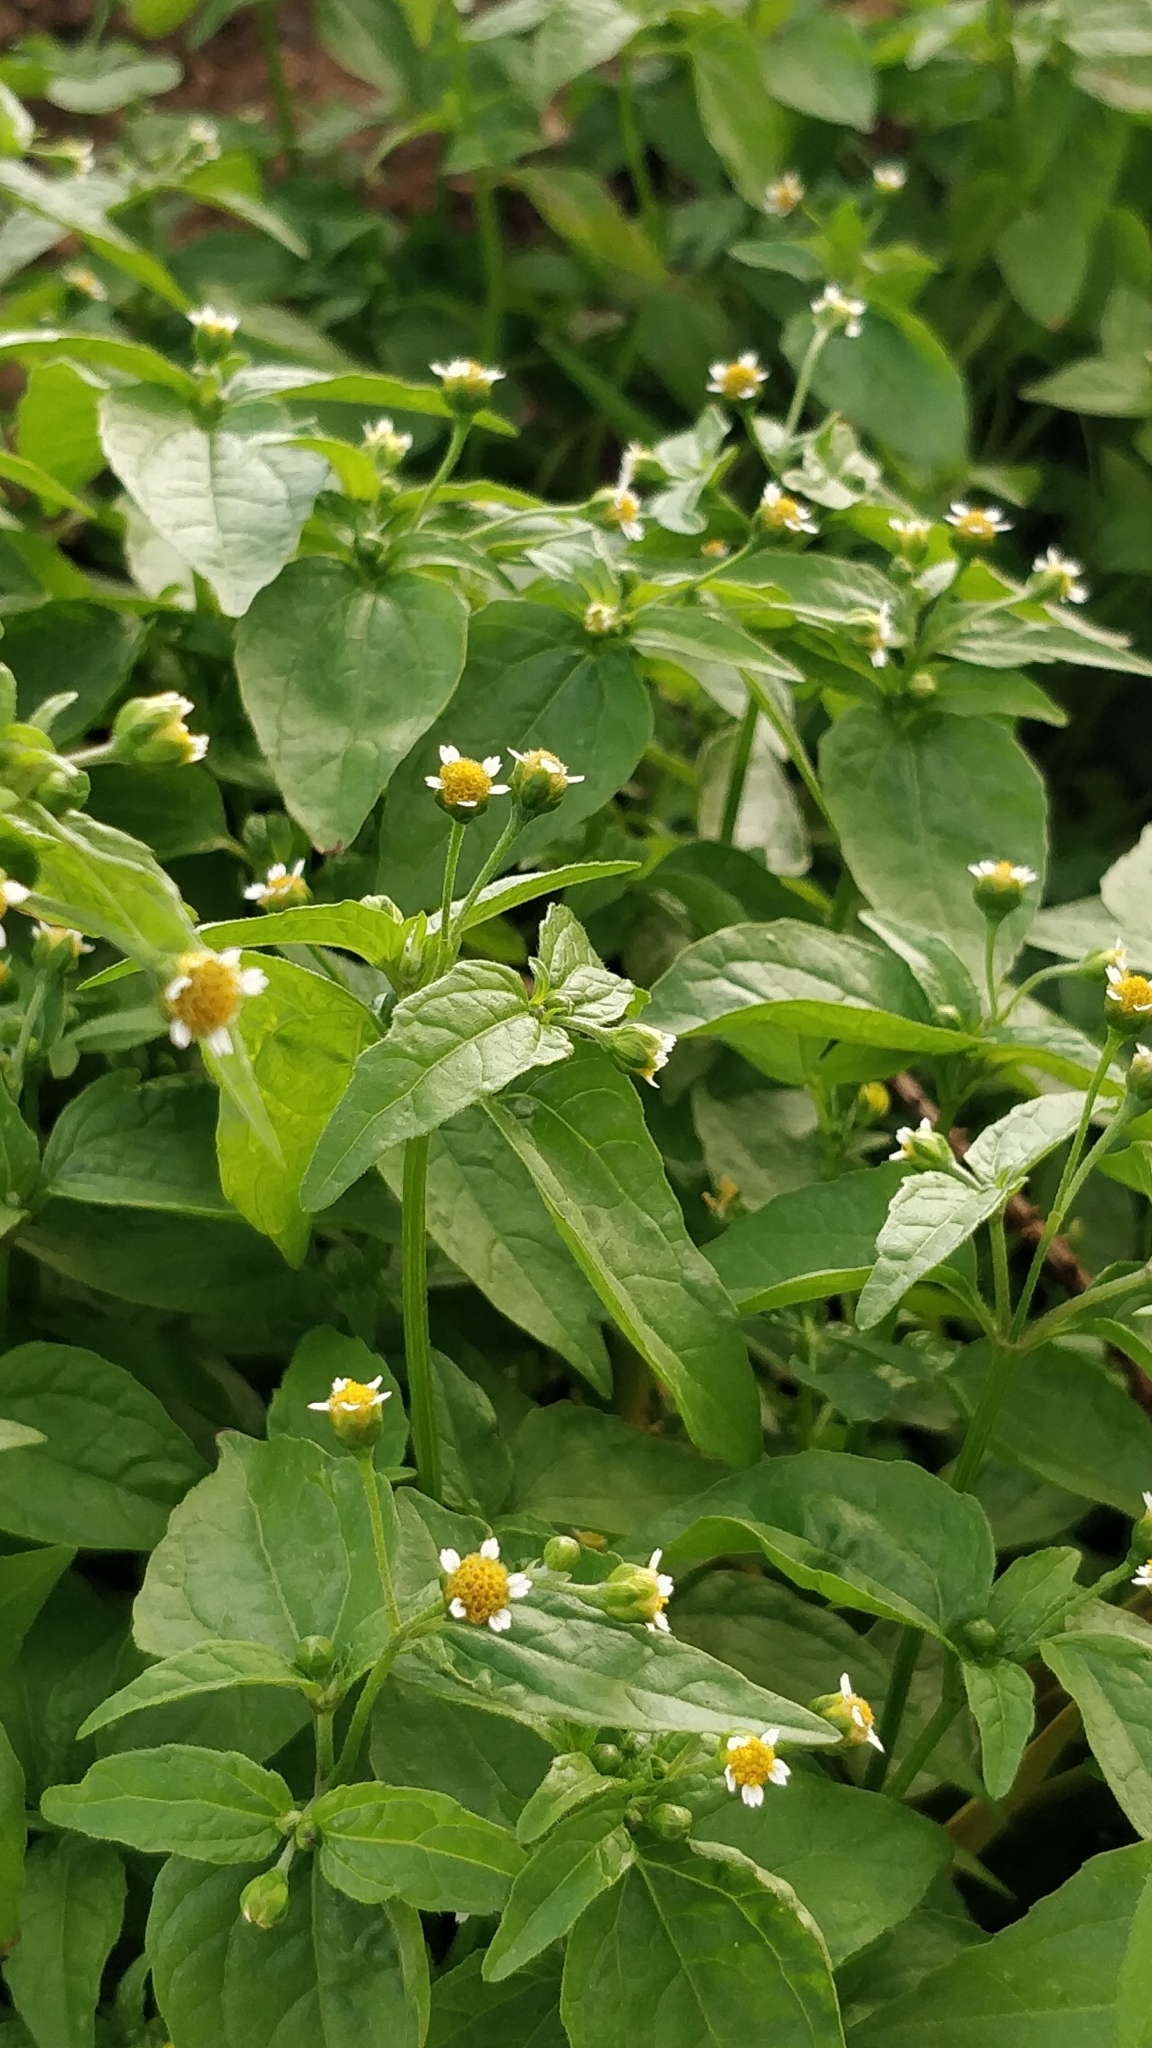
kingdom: Plantae
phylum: Tracheophyta
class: Magnoliopsida
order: Asterales
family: Asteraceae
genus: Galinsoga
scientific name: Galinsoga quadriradiata
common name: Shaggy soldier
